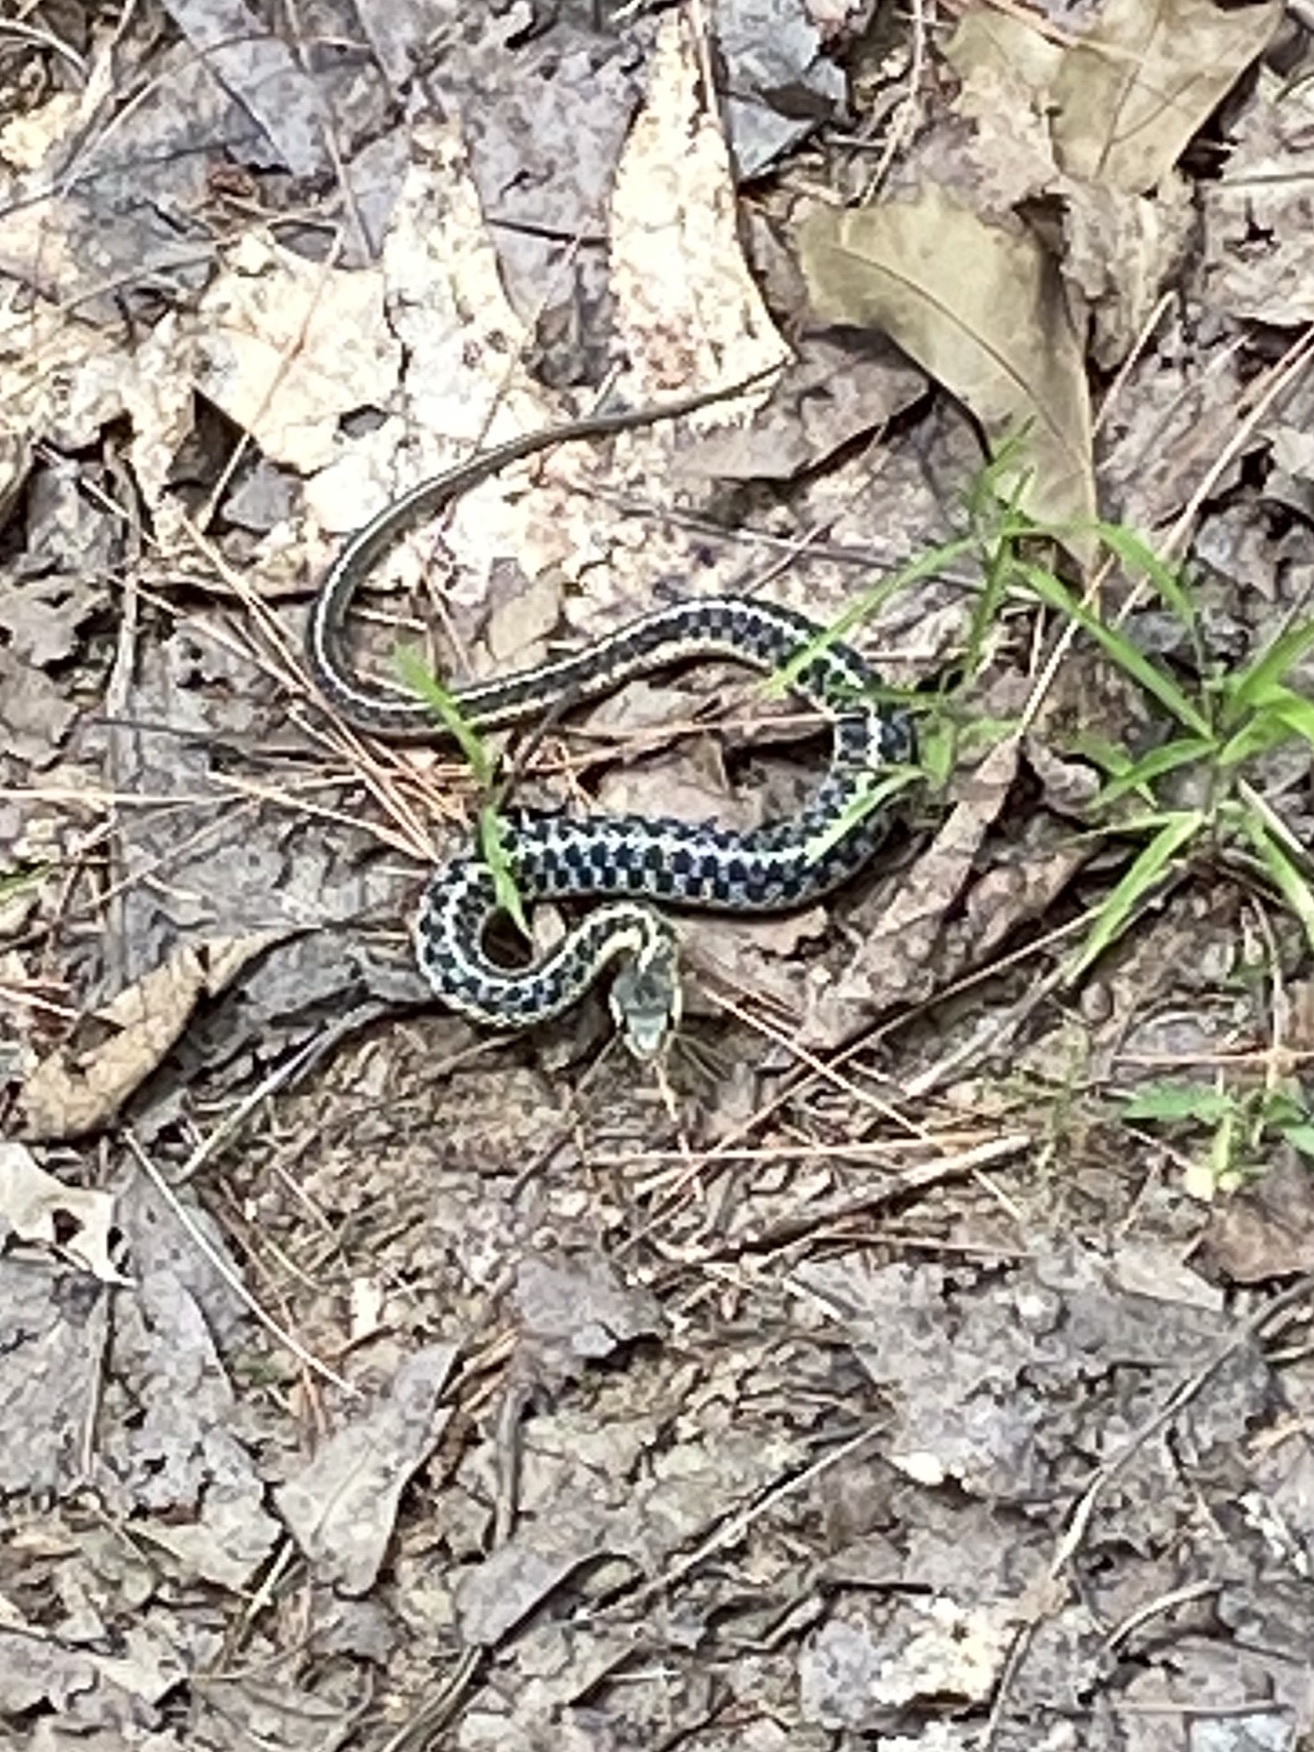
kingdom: Animalia
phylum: Chordata
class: Squamata
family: Colubridae
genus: Thamnophis
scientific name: Thamnophis sirtalis
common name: Common garter snake
